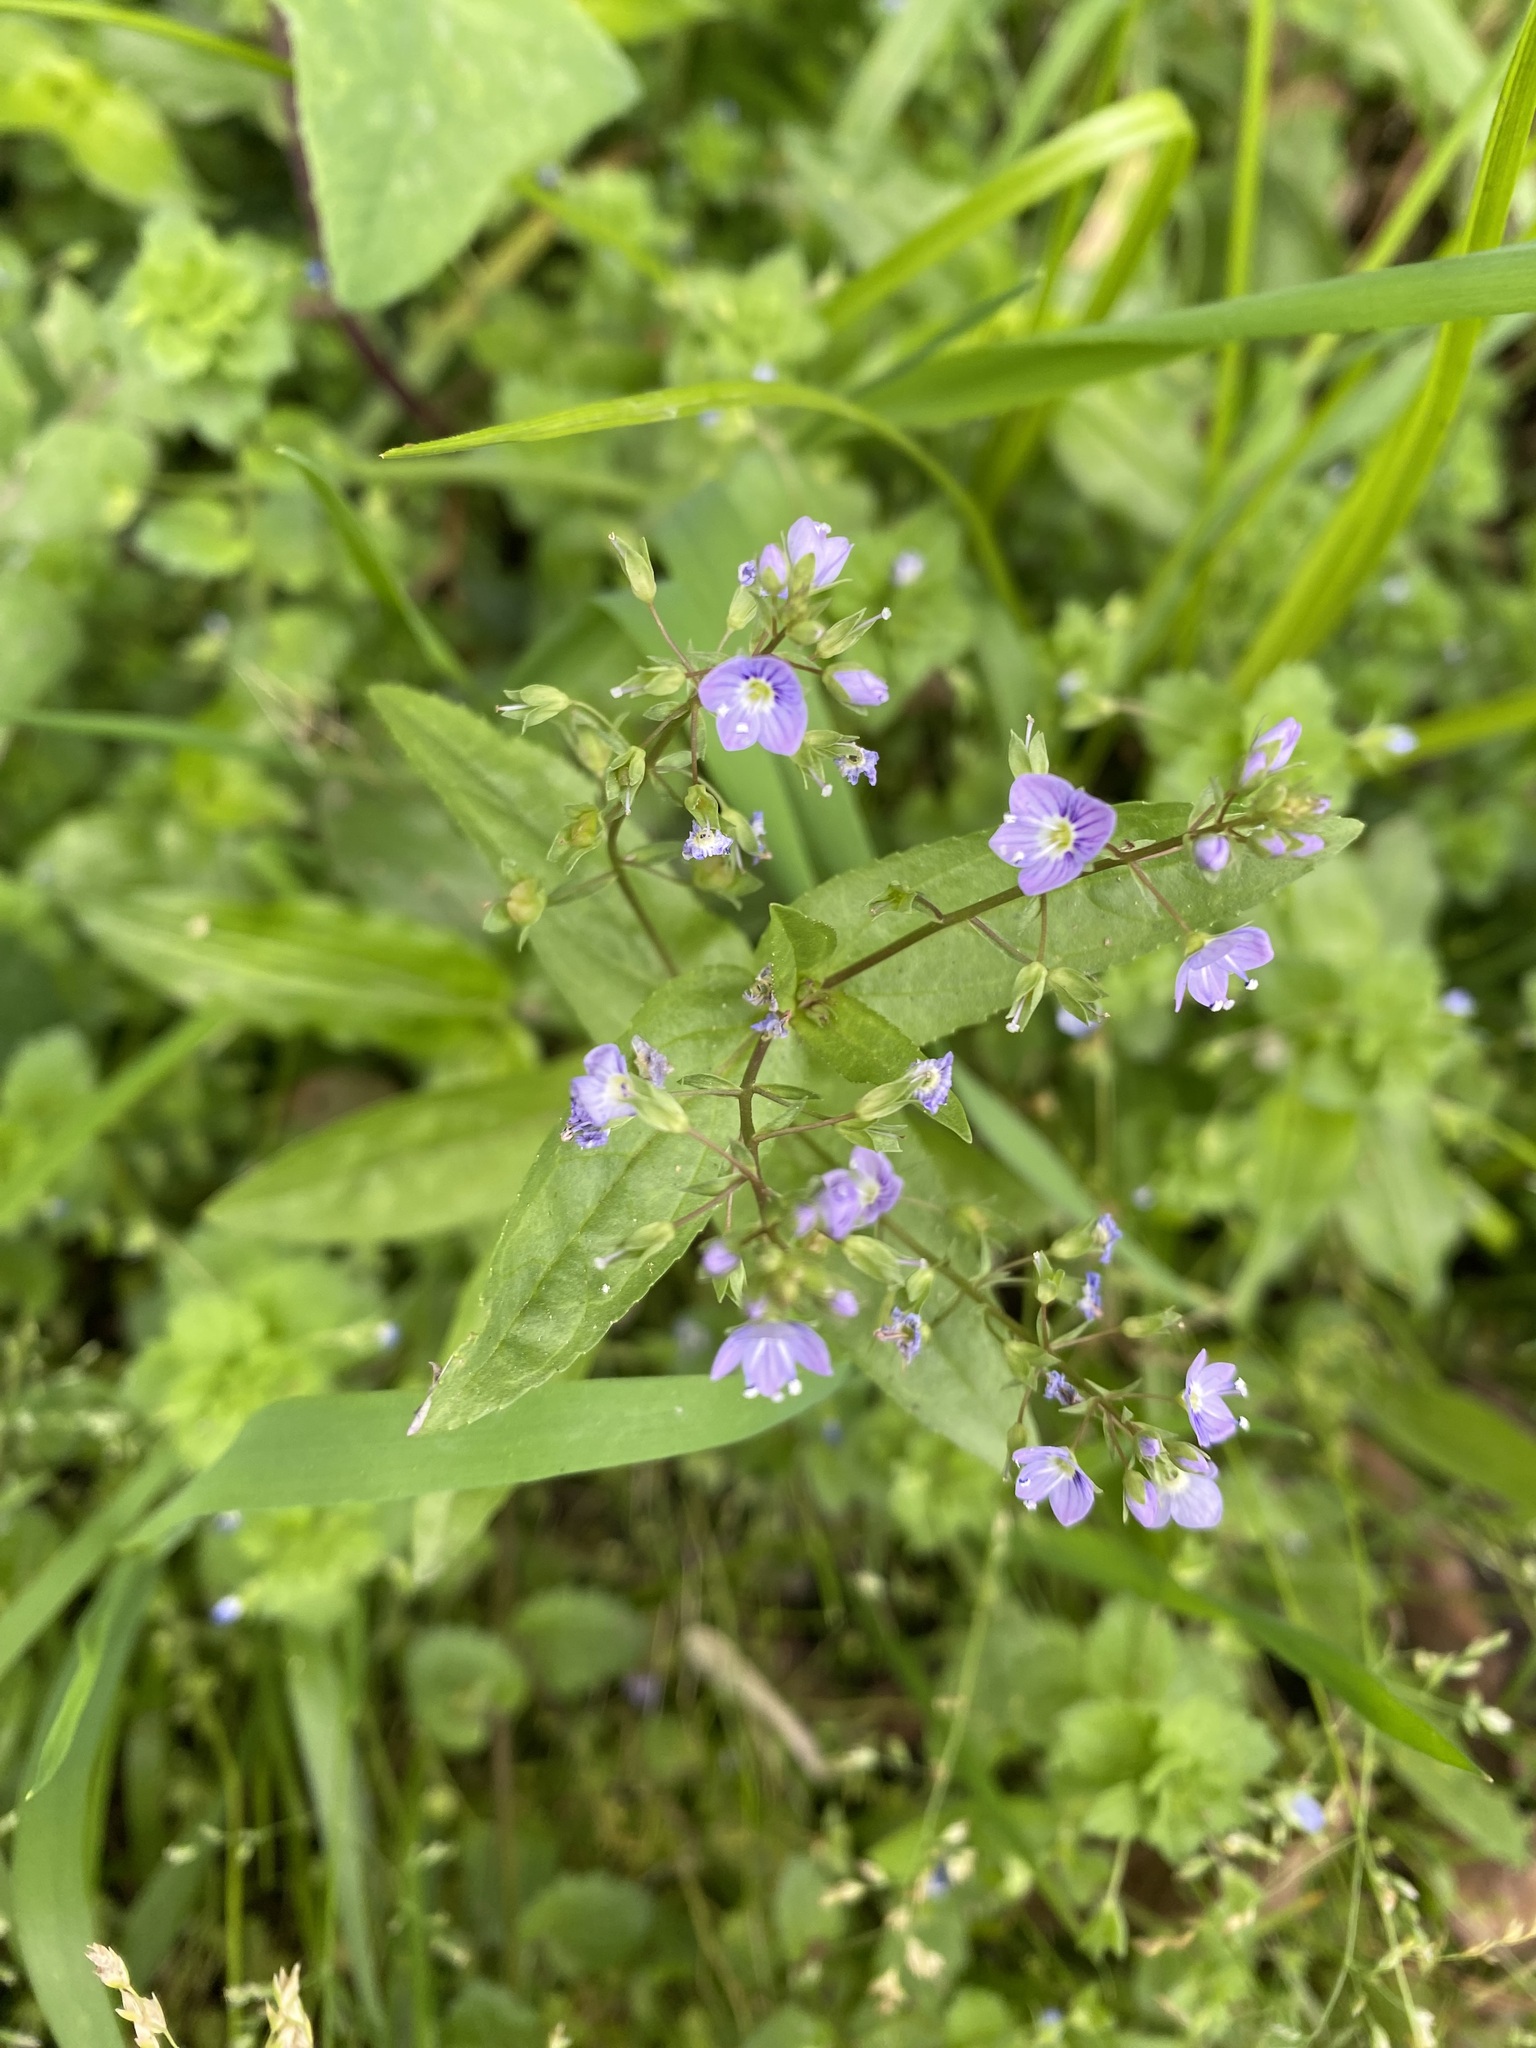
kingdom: Plantae
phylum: Tracheophyta
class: Magnoliopsida
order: Lamiales
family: Plantaginaceae
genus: Veronica
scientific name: Veronica anagallis-aquatica
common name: Water speedwell
